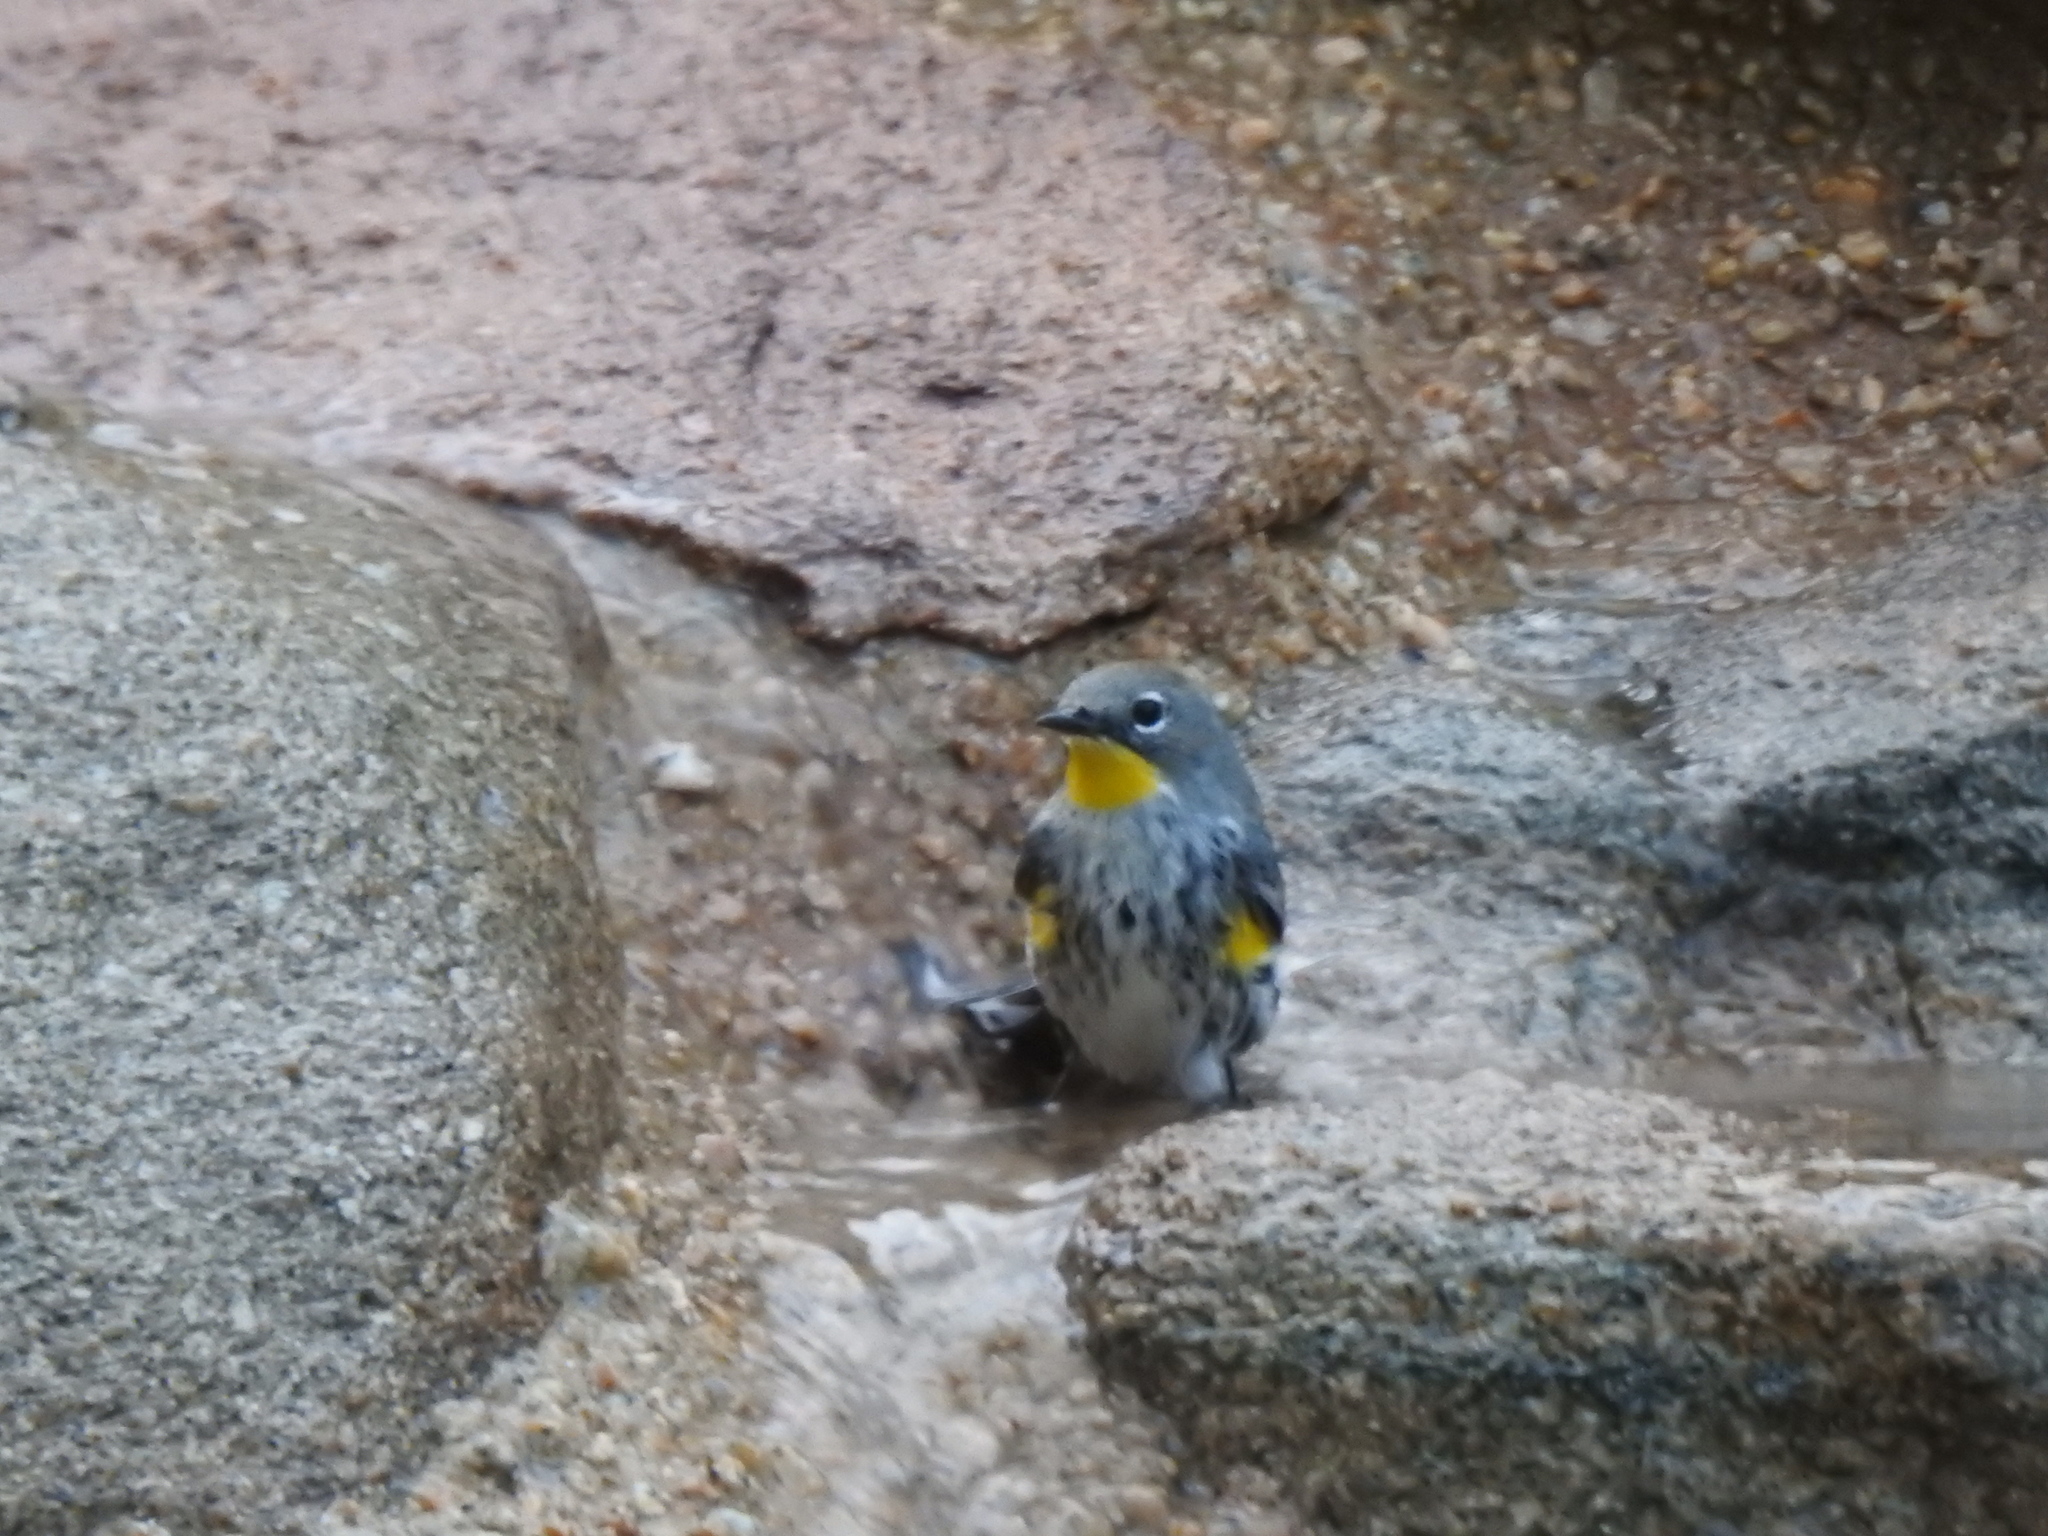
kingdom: Animalia
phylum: Chordata
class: Aves
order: Passeriformes
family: Parulidae
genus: Setophaga
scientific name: Setophaga coronata
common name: Myrtle warbler
